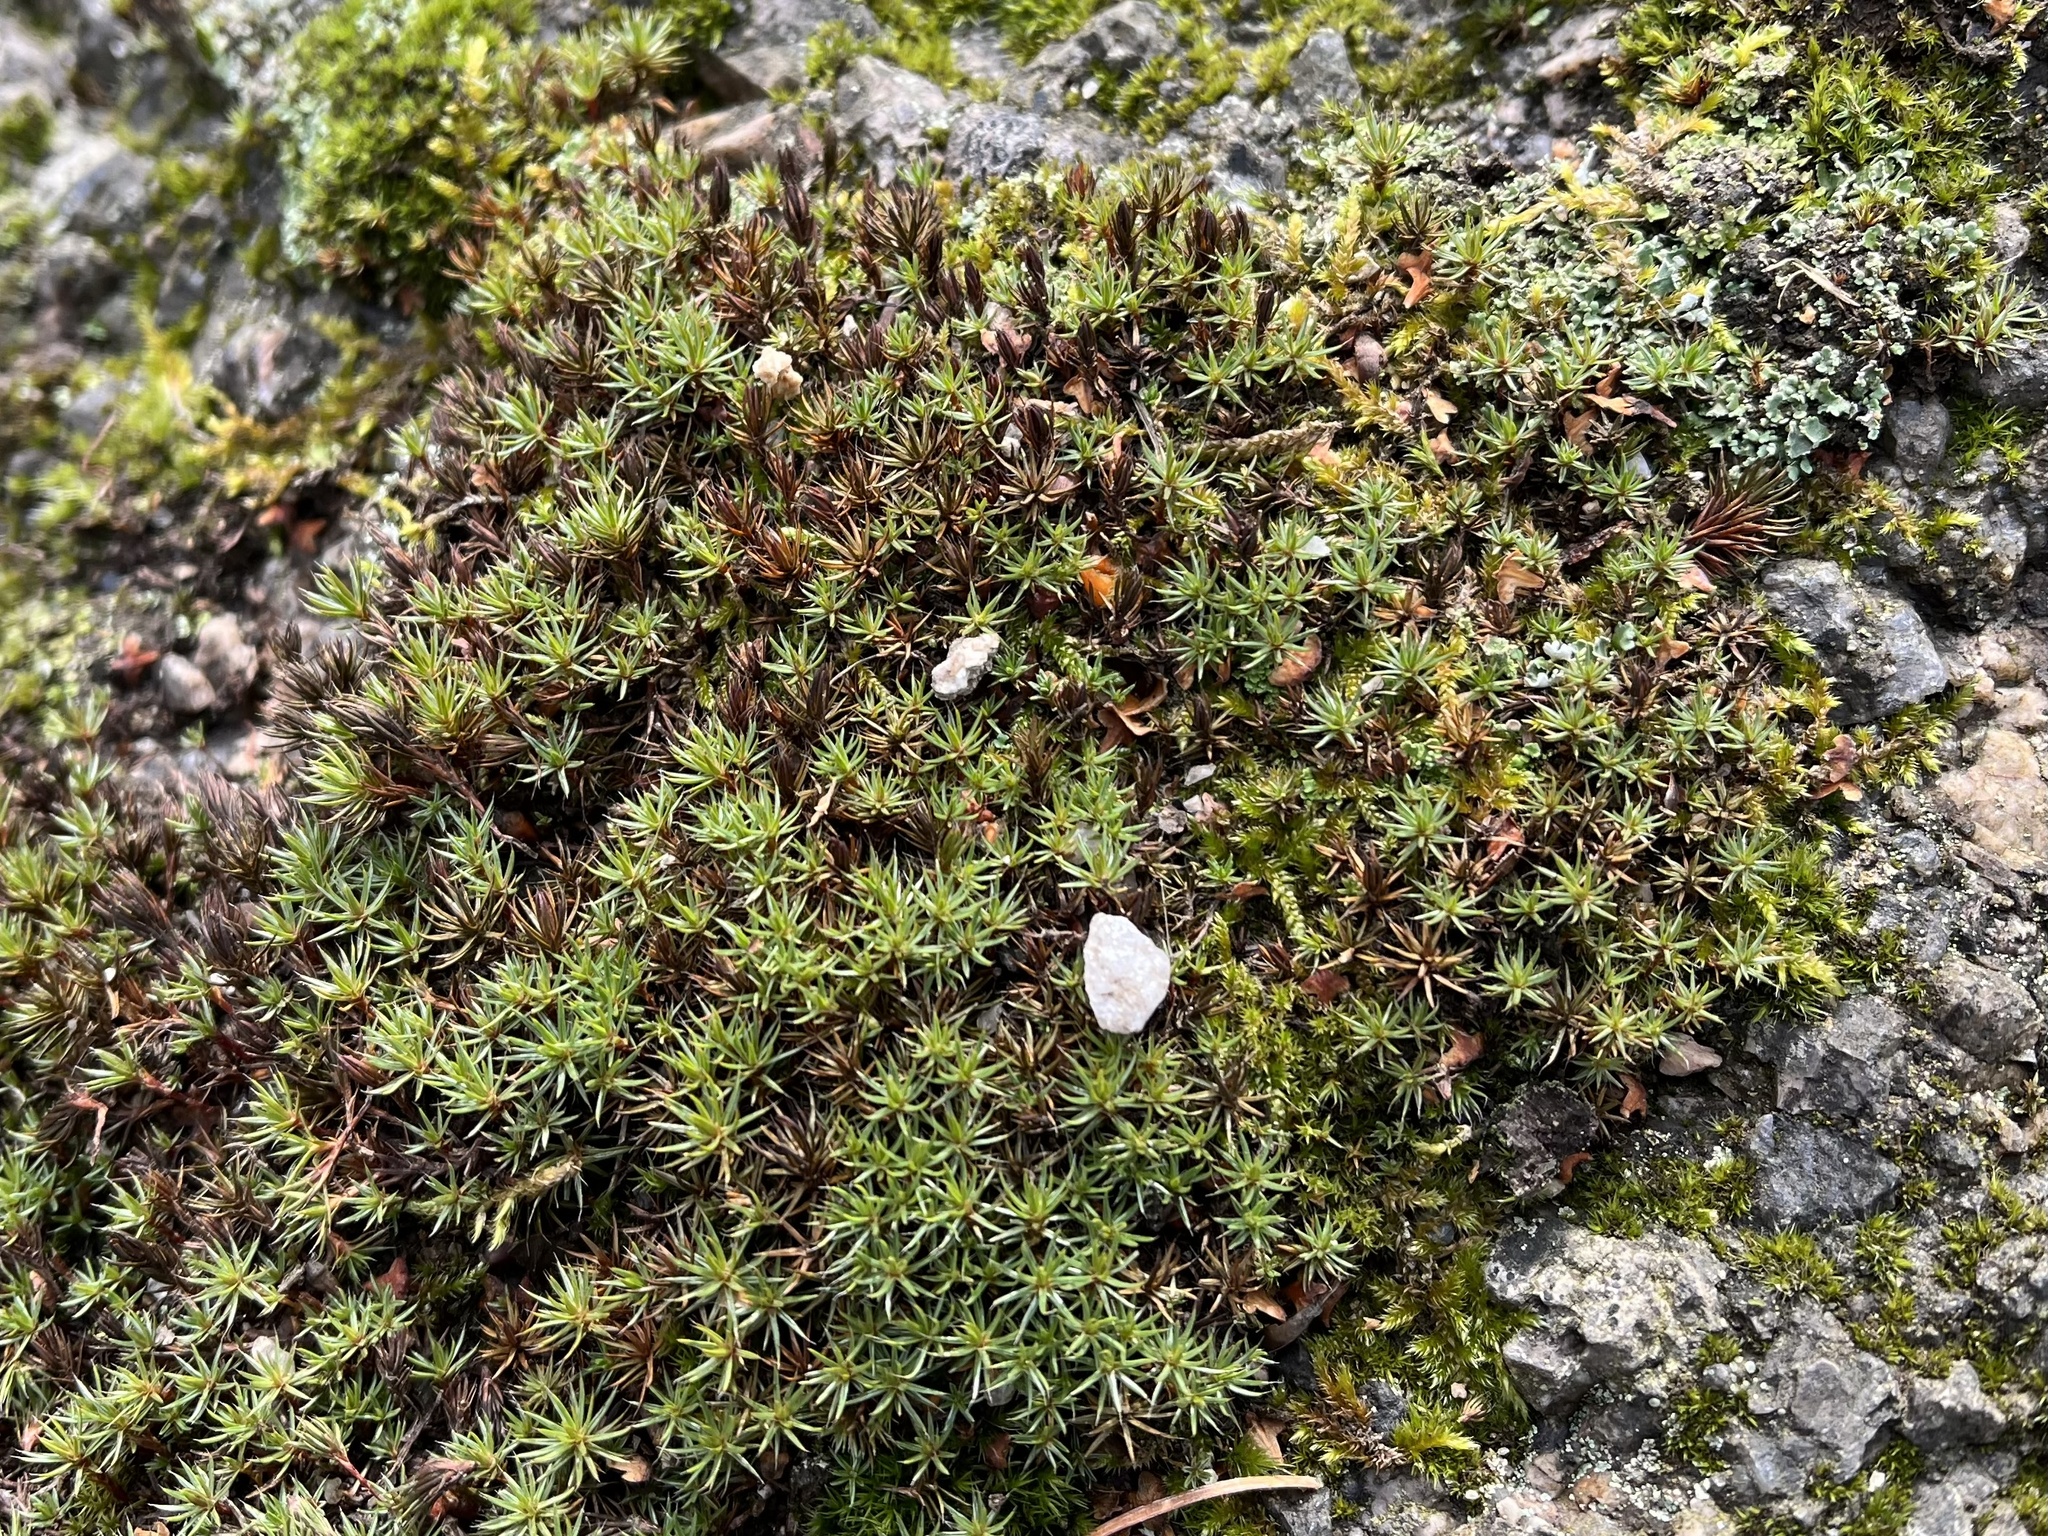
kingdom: Plantae
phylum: Bryophyta
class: Polytrichopsida
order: Polytrichales
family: Polytrichaceae
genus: Polytrichum
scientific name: Polytrichum piliferum
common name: Bristly haircap
